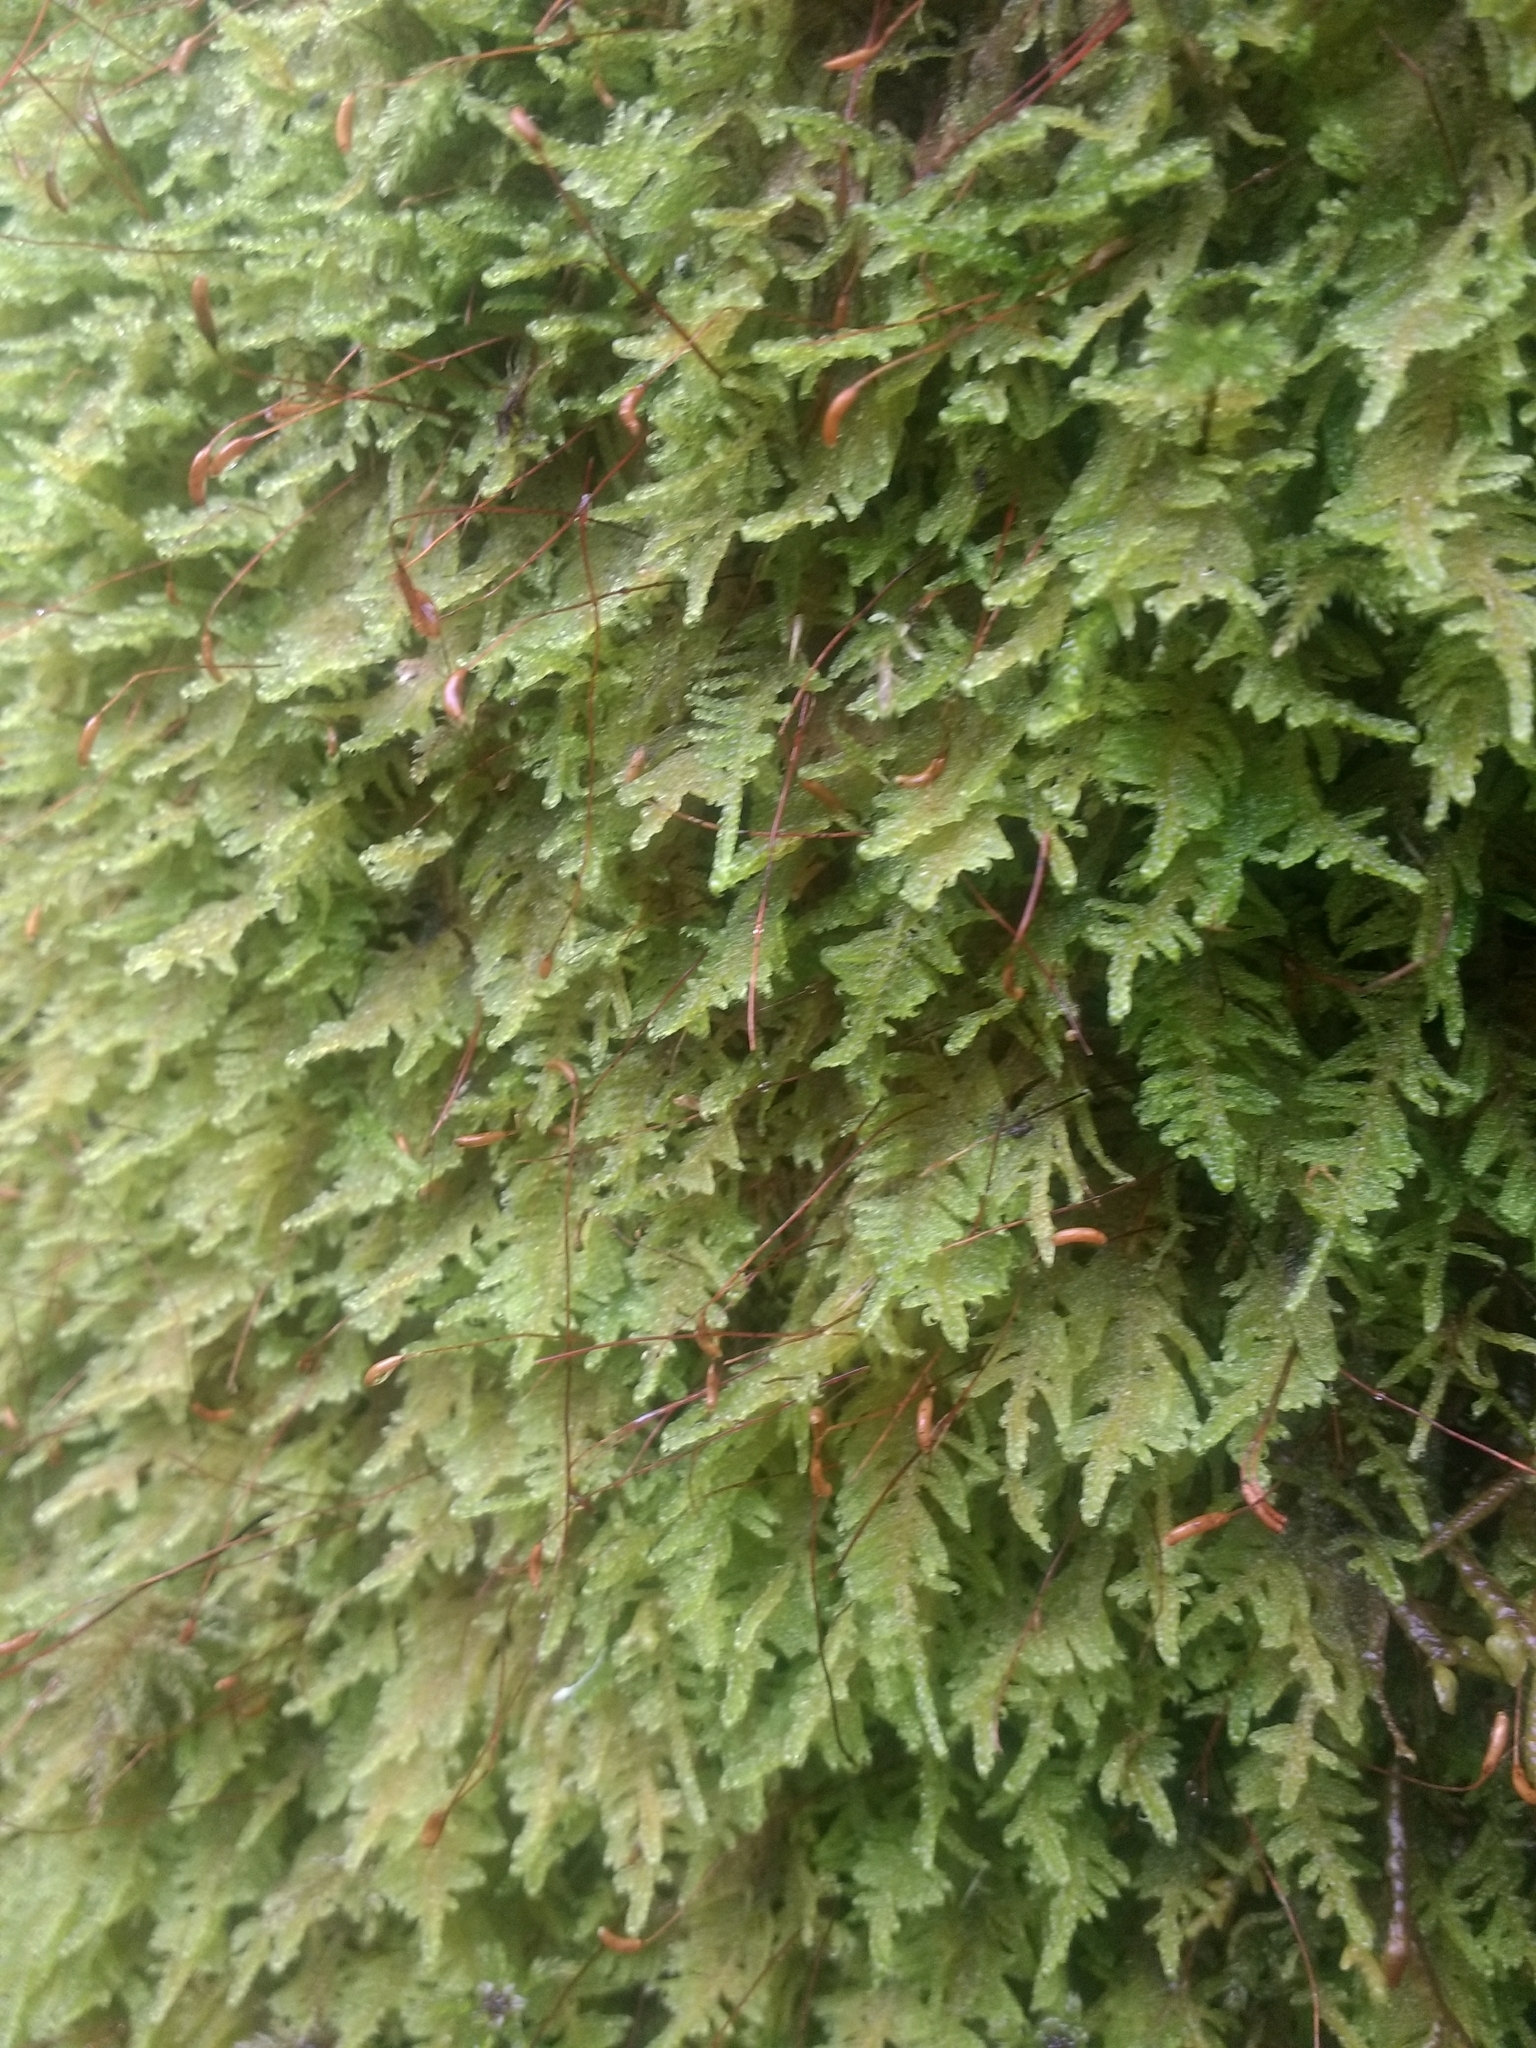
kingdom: Plantae
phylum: Bryophyta
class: Bryopsida
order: Hypnales
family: Stereodontaceae
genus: Stereodon
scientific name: Stereodon subimponens
